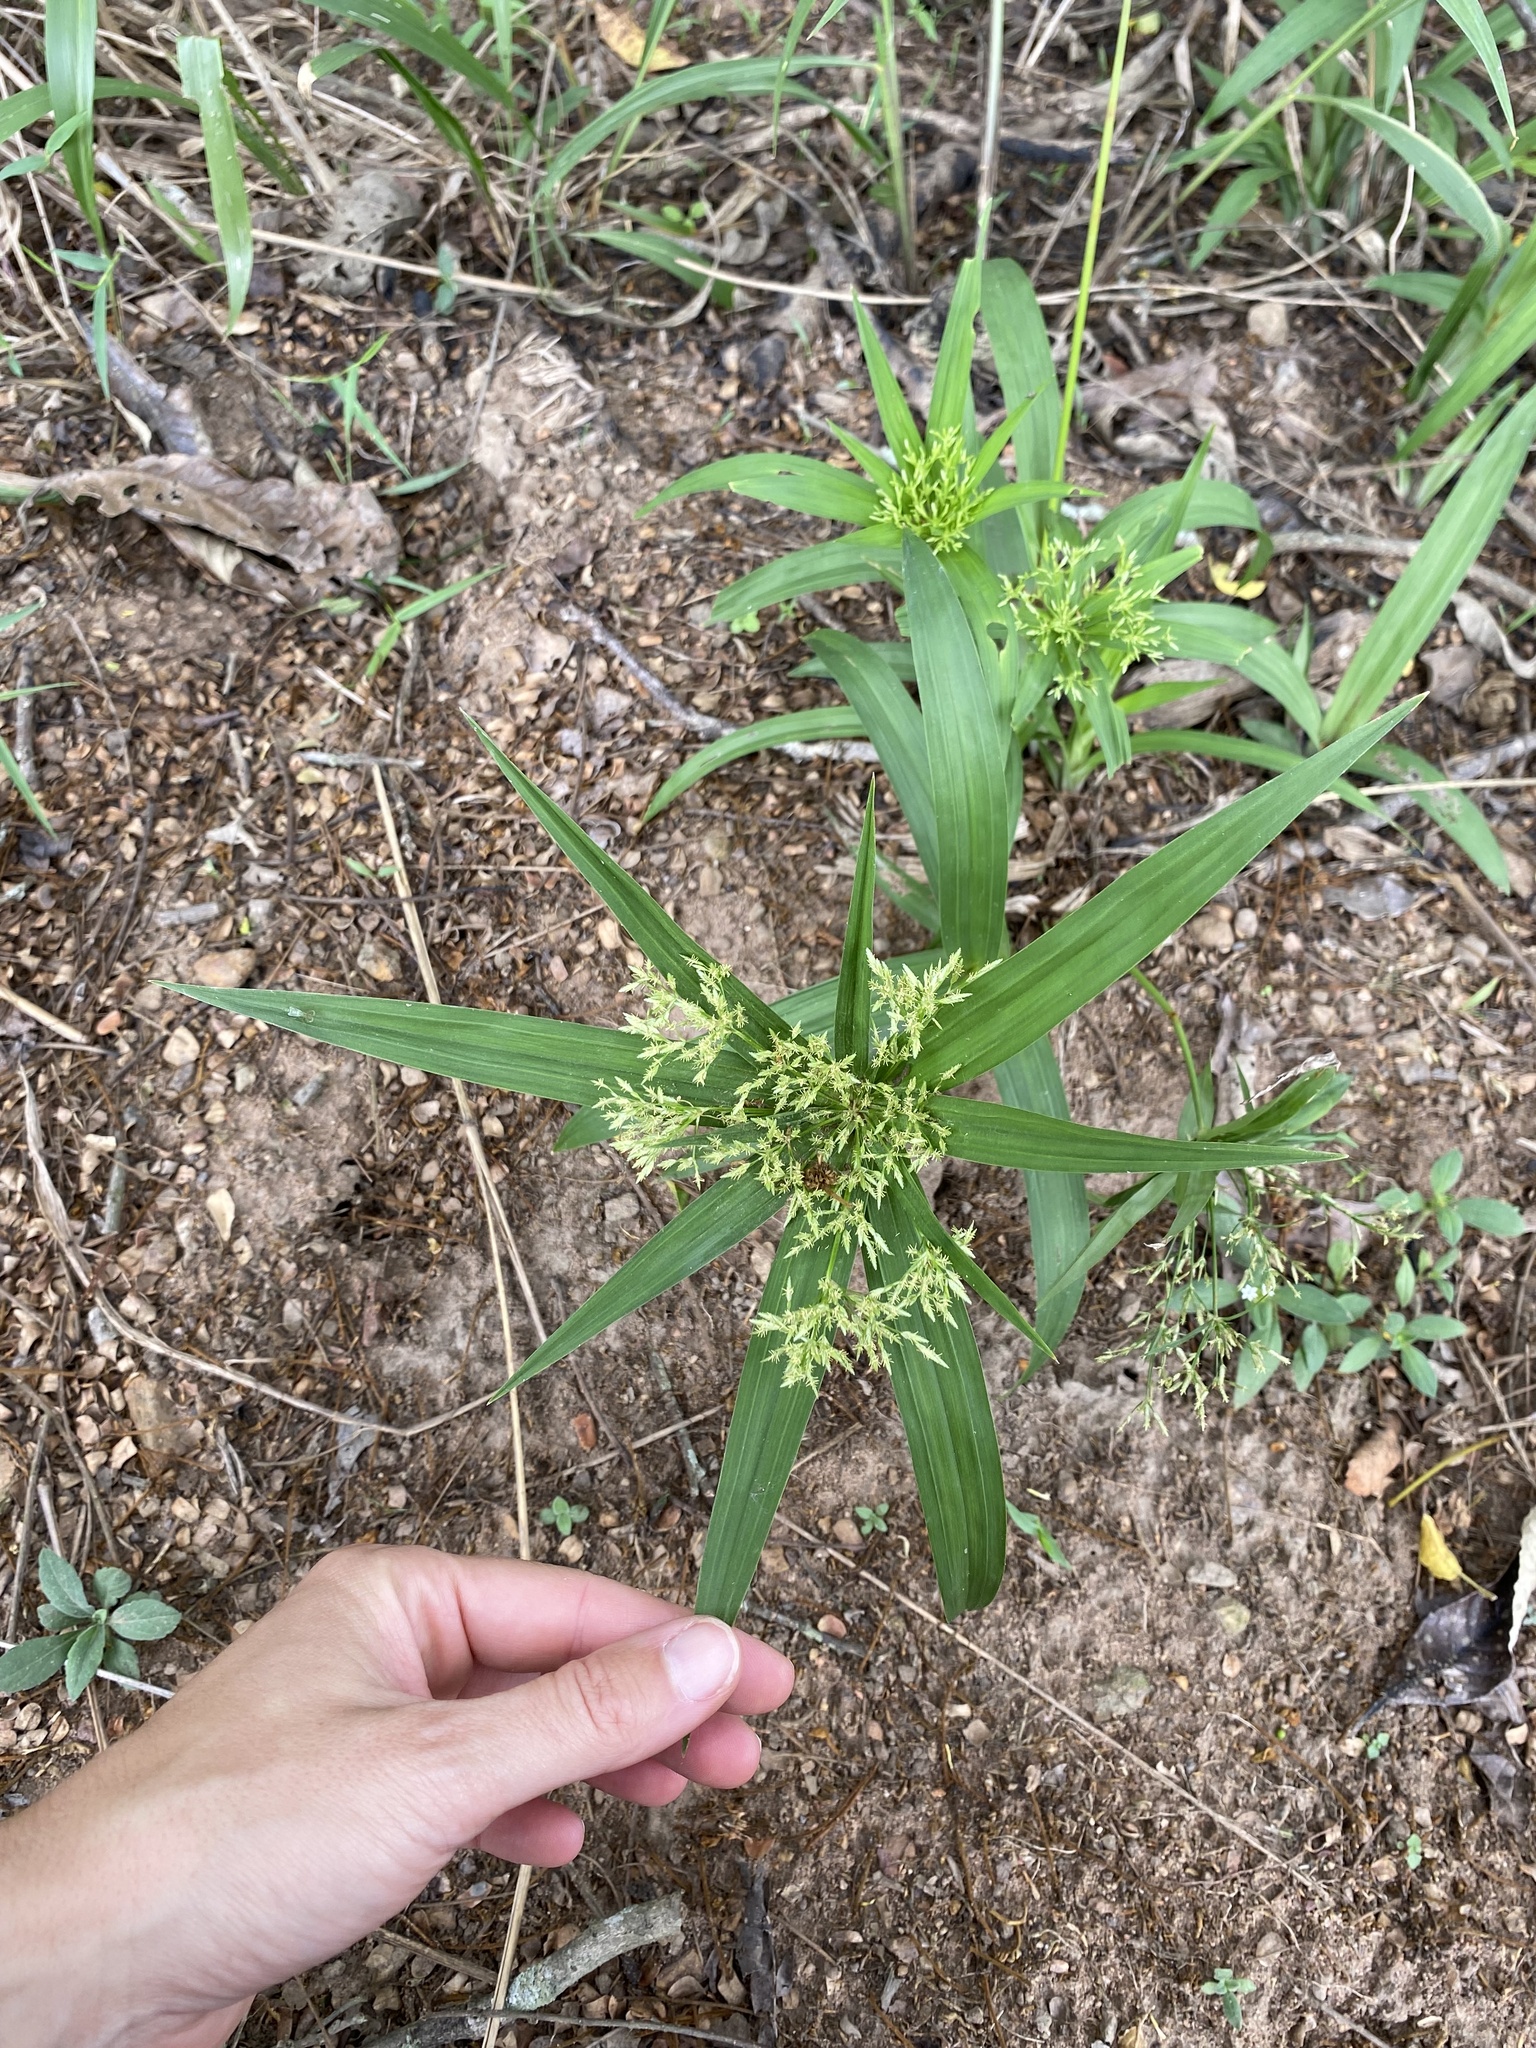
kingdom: Plantae
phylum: Tracheophyta
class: Liliopsida
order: Poales
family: Cyperaceae
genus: Cyperus
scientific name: Cyperus albostriatus
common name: Dwarf umbrella-grass
